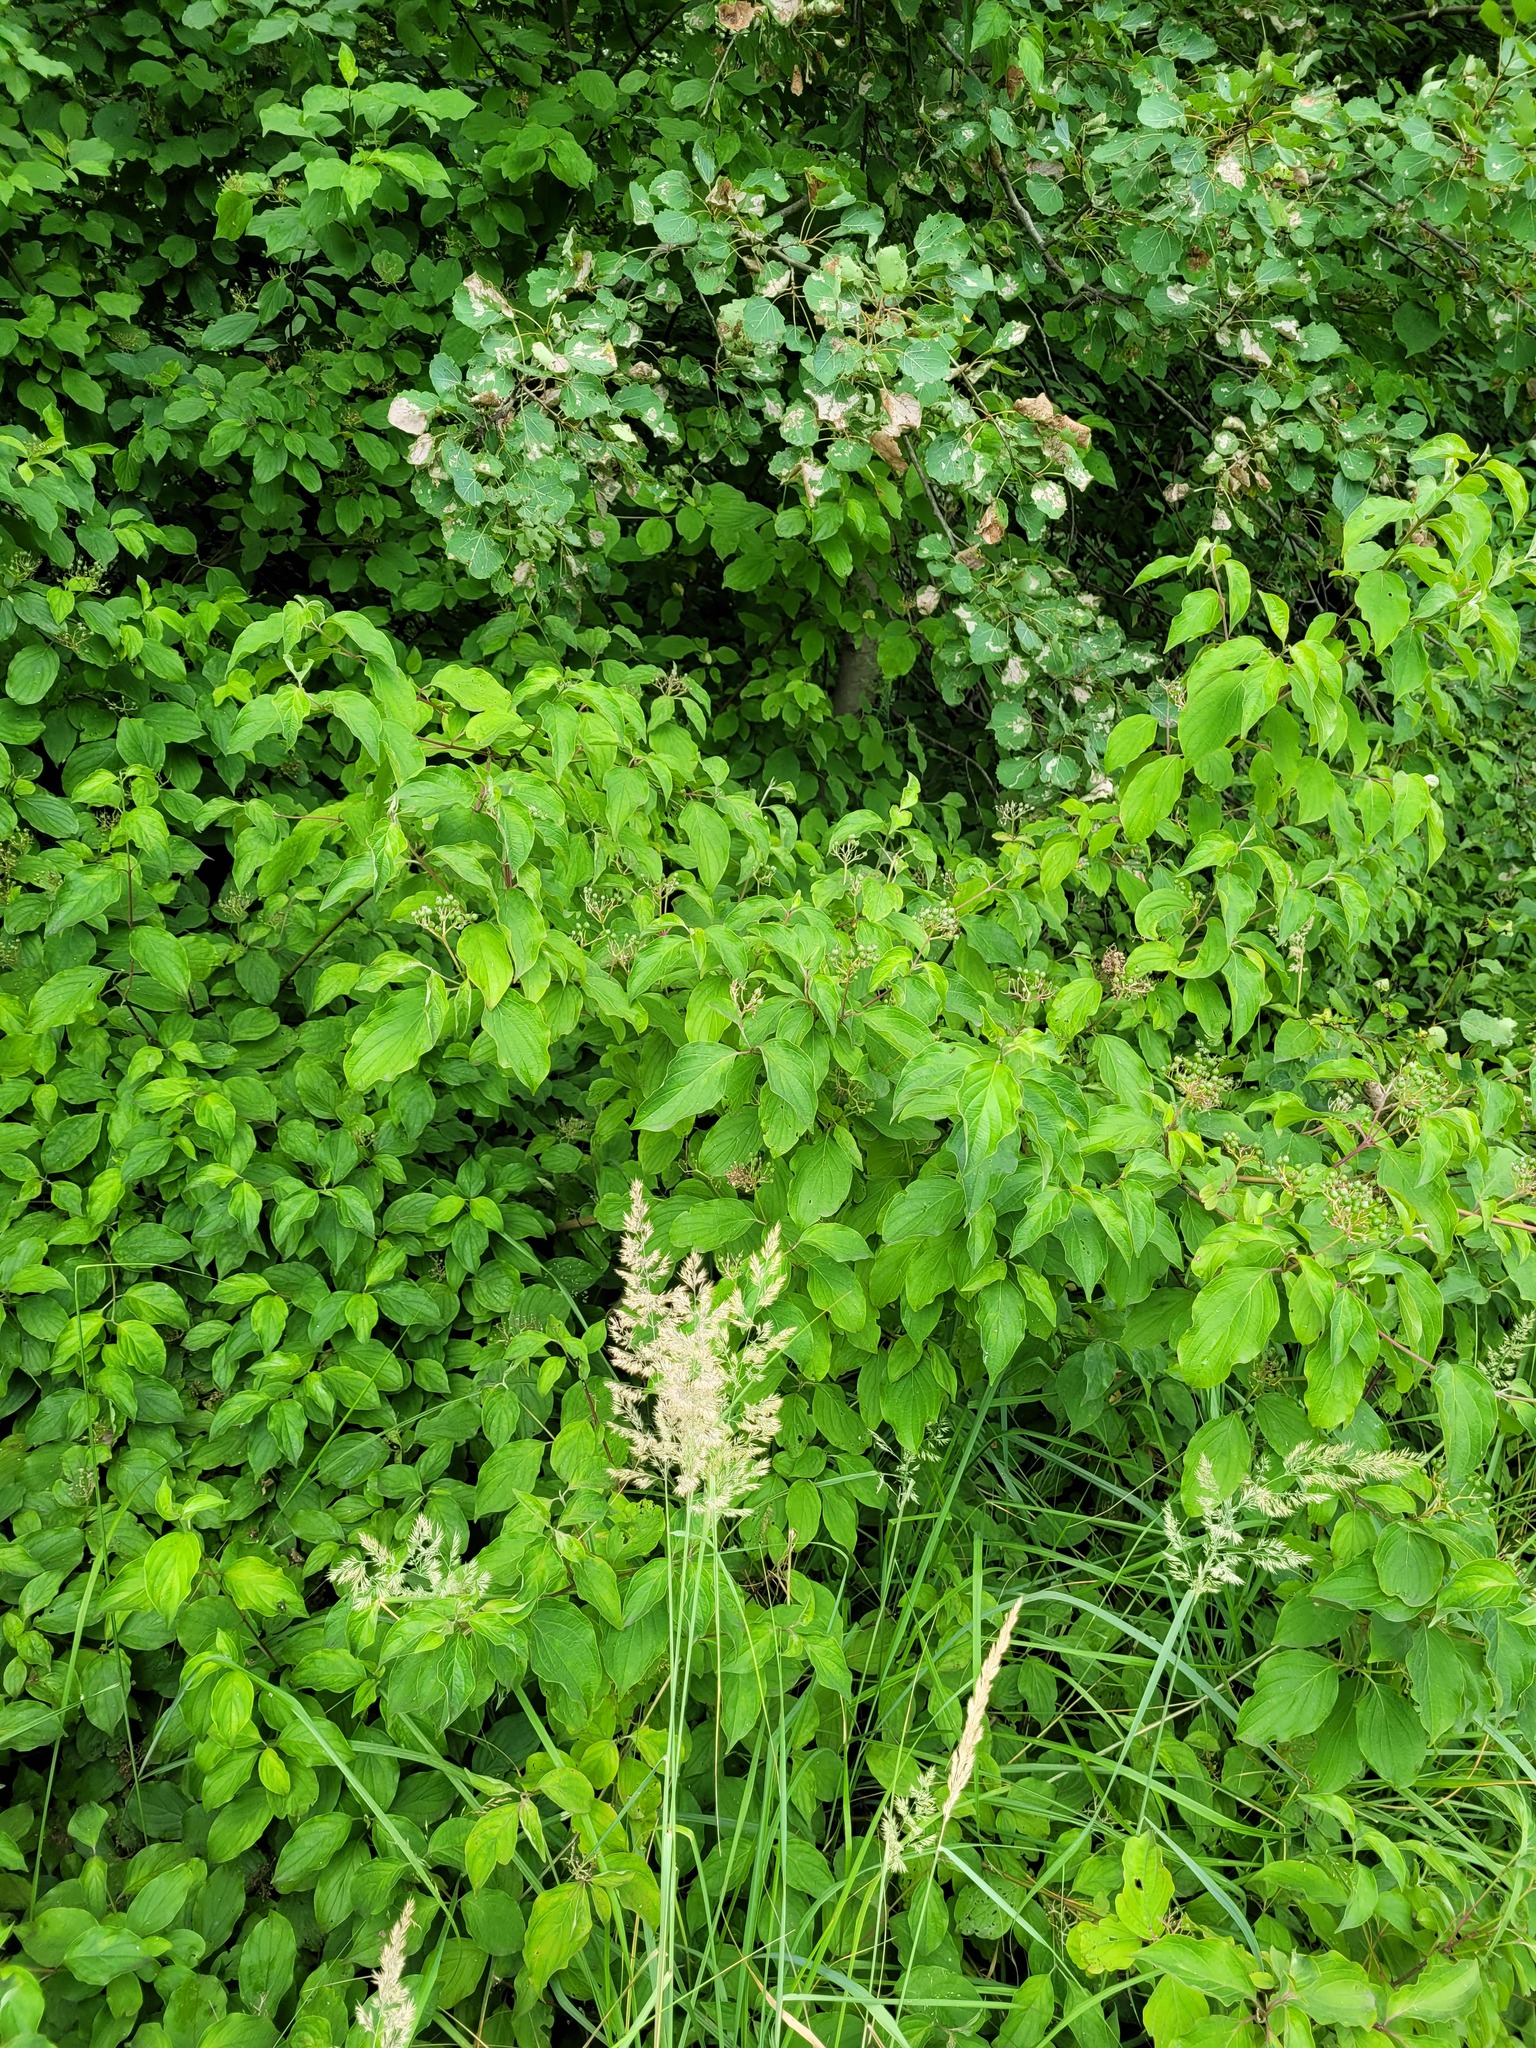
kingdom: Plantae
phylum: Tracheophyta
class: Magnoliopsida
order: Cornales
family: Cornaceae
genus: Cornus
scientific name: Cornus sanguinea
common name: Dogwood
